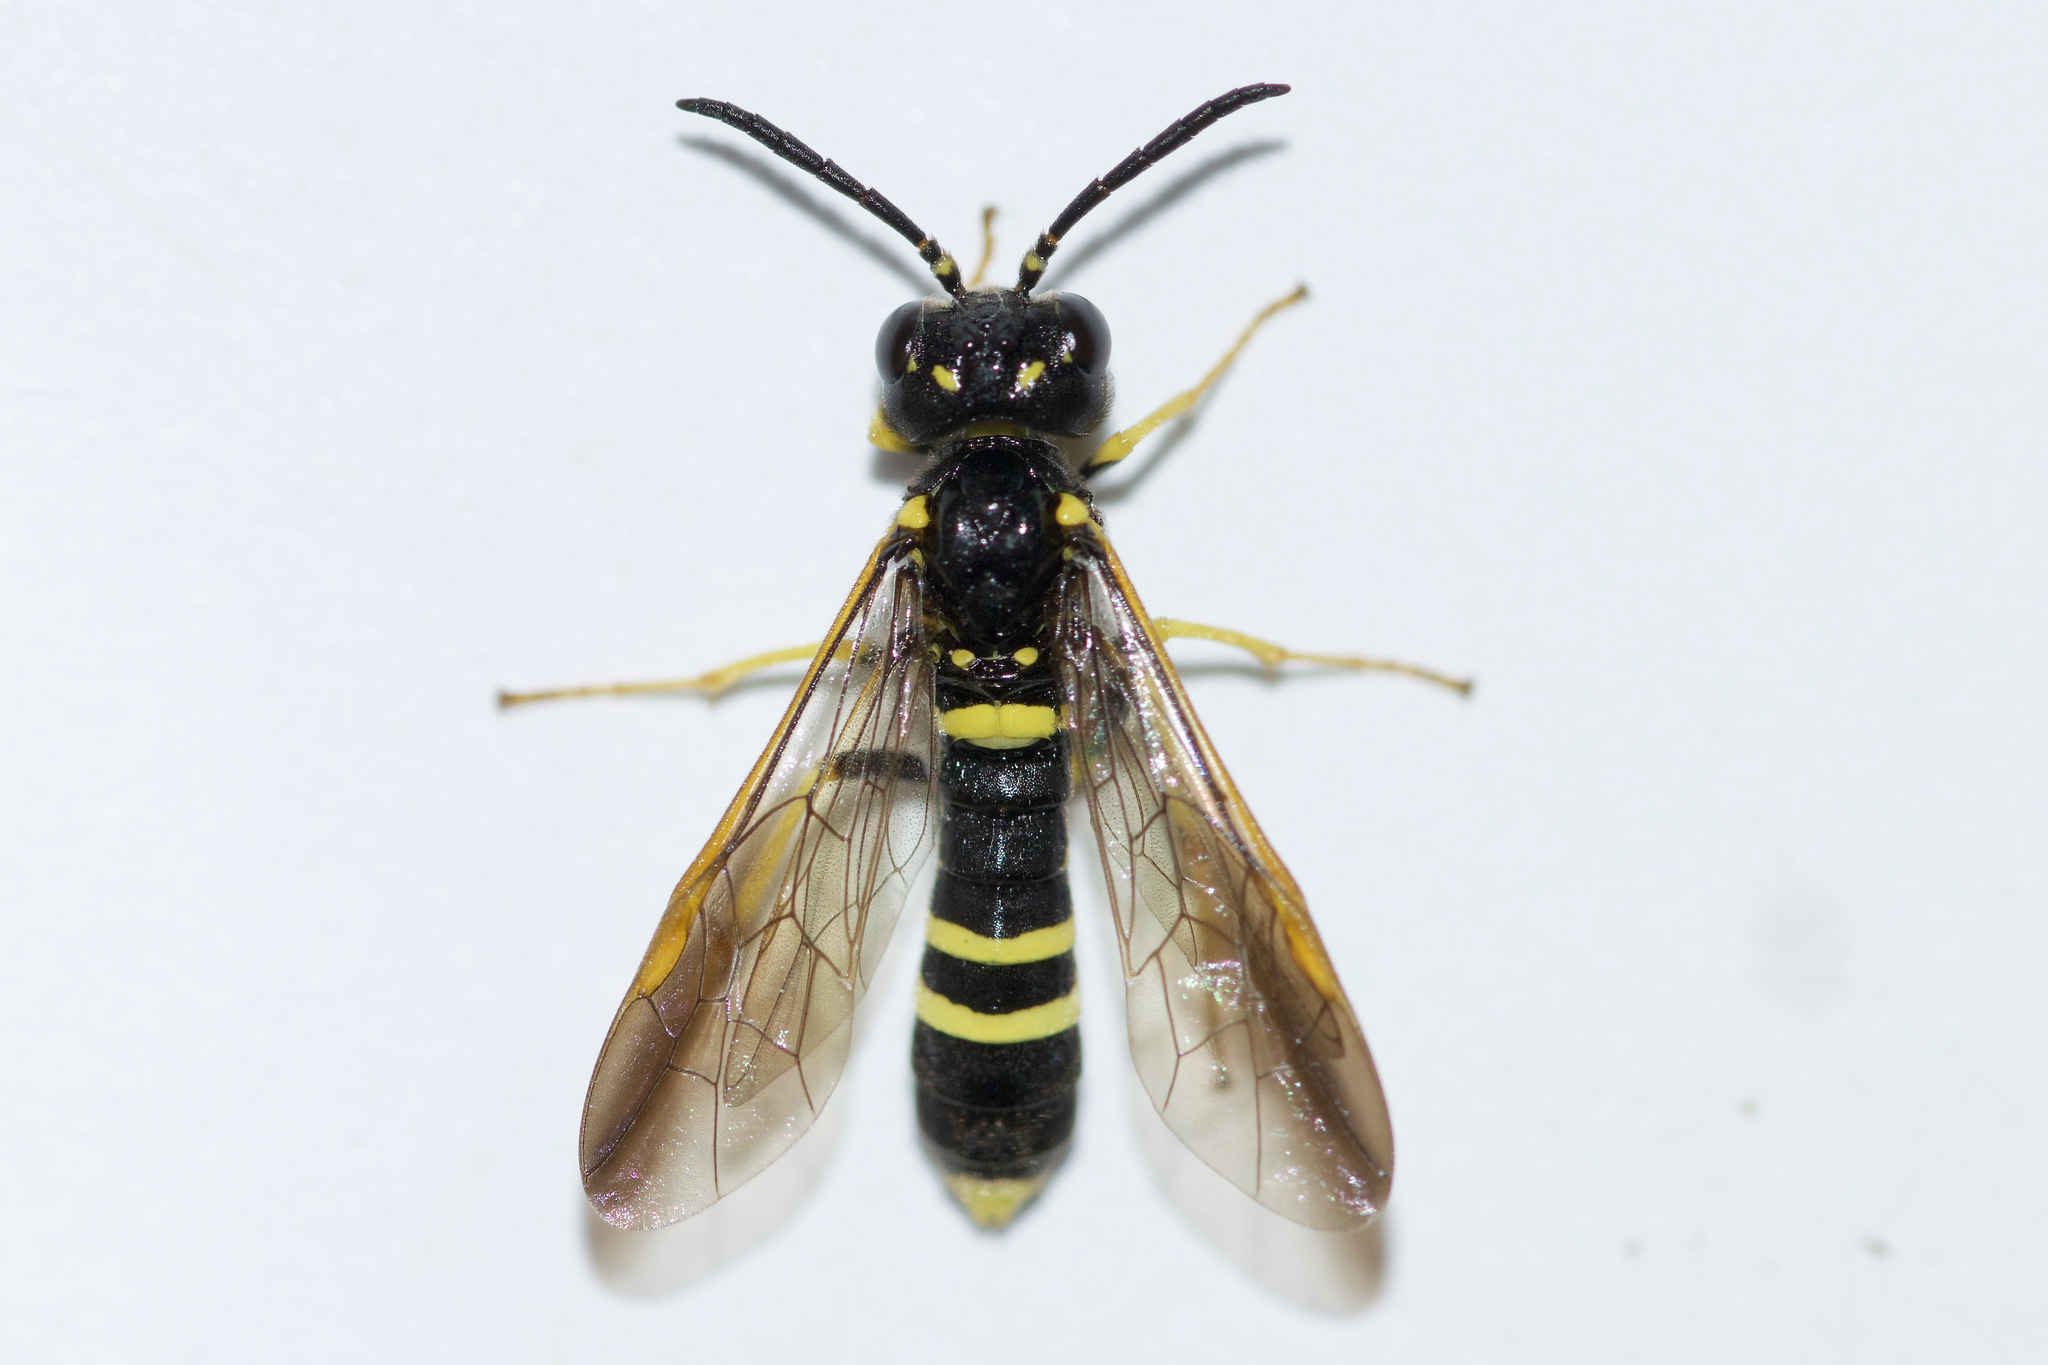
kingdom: Animalia
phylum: Arthropoda
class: Insecta
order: Hymenoptera
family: Tenthredinidae
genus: Allantus
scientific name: Allantus viennensis
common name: Sawfly
